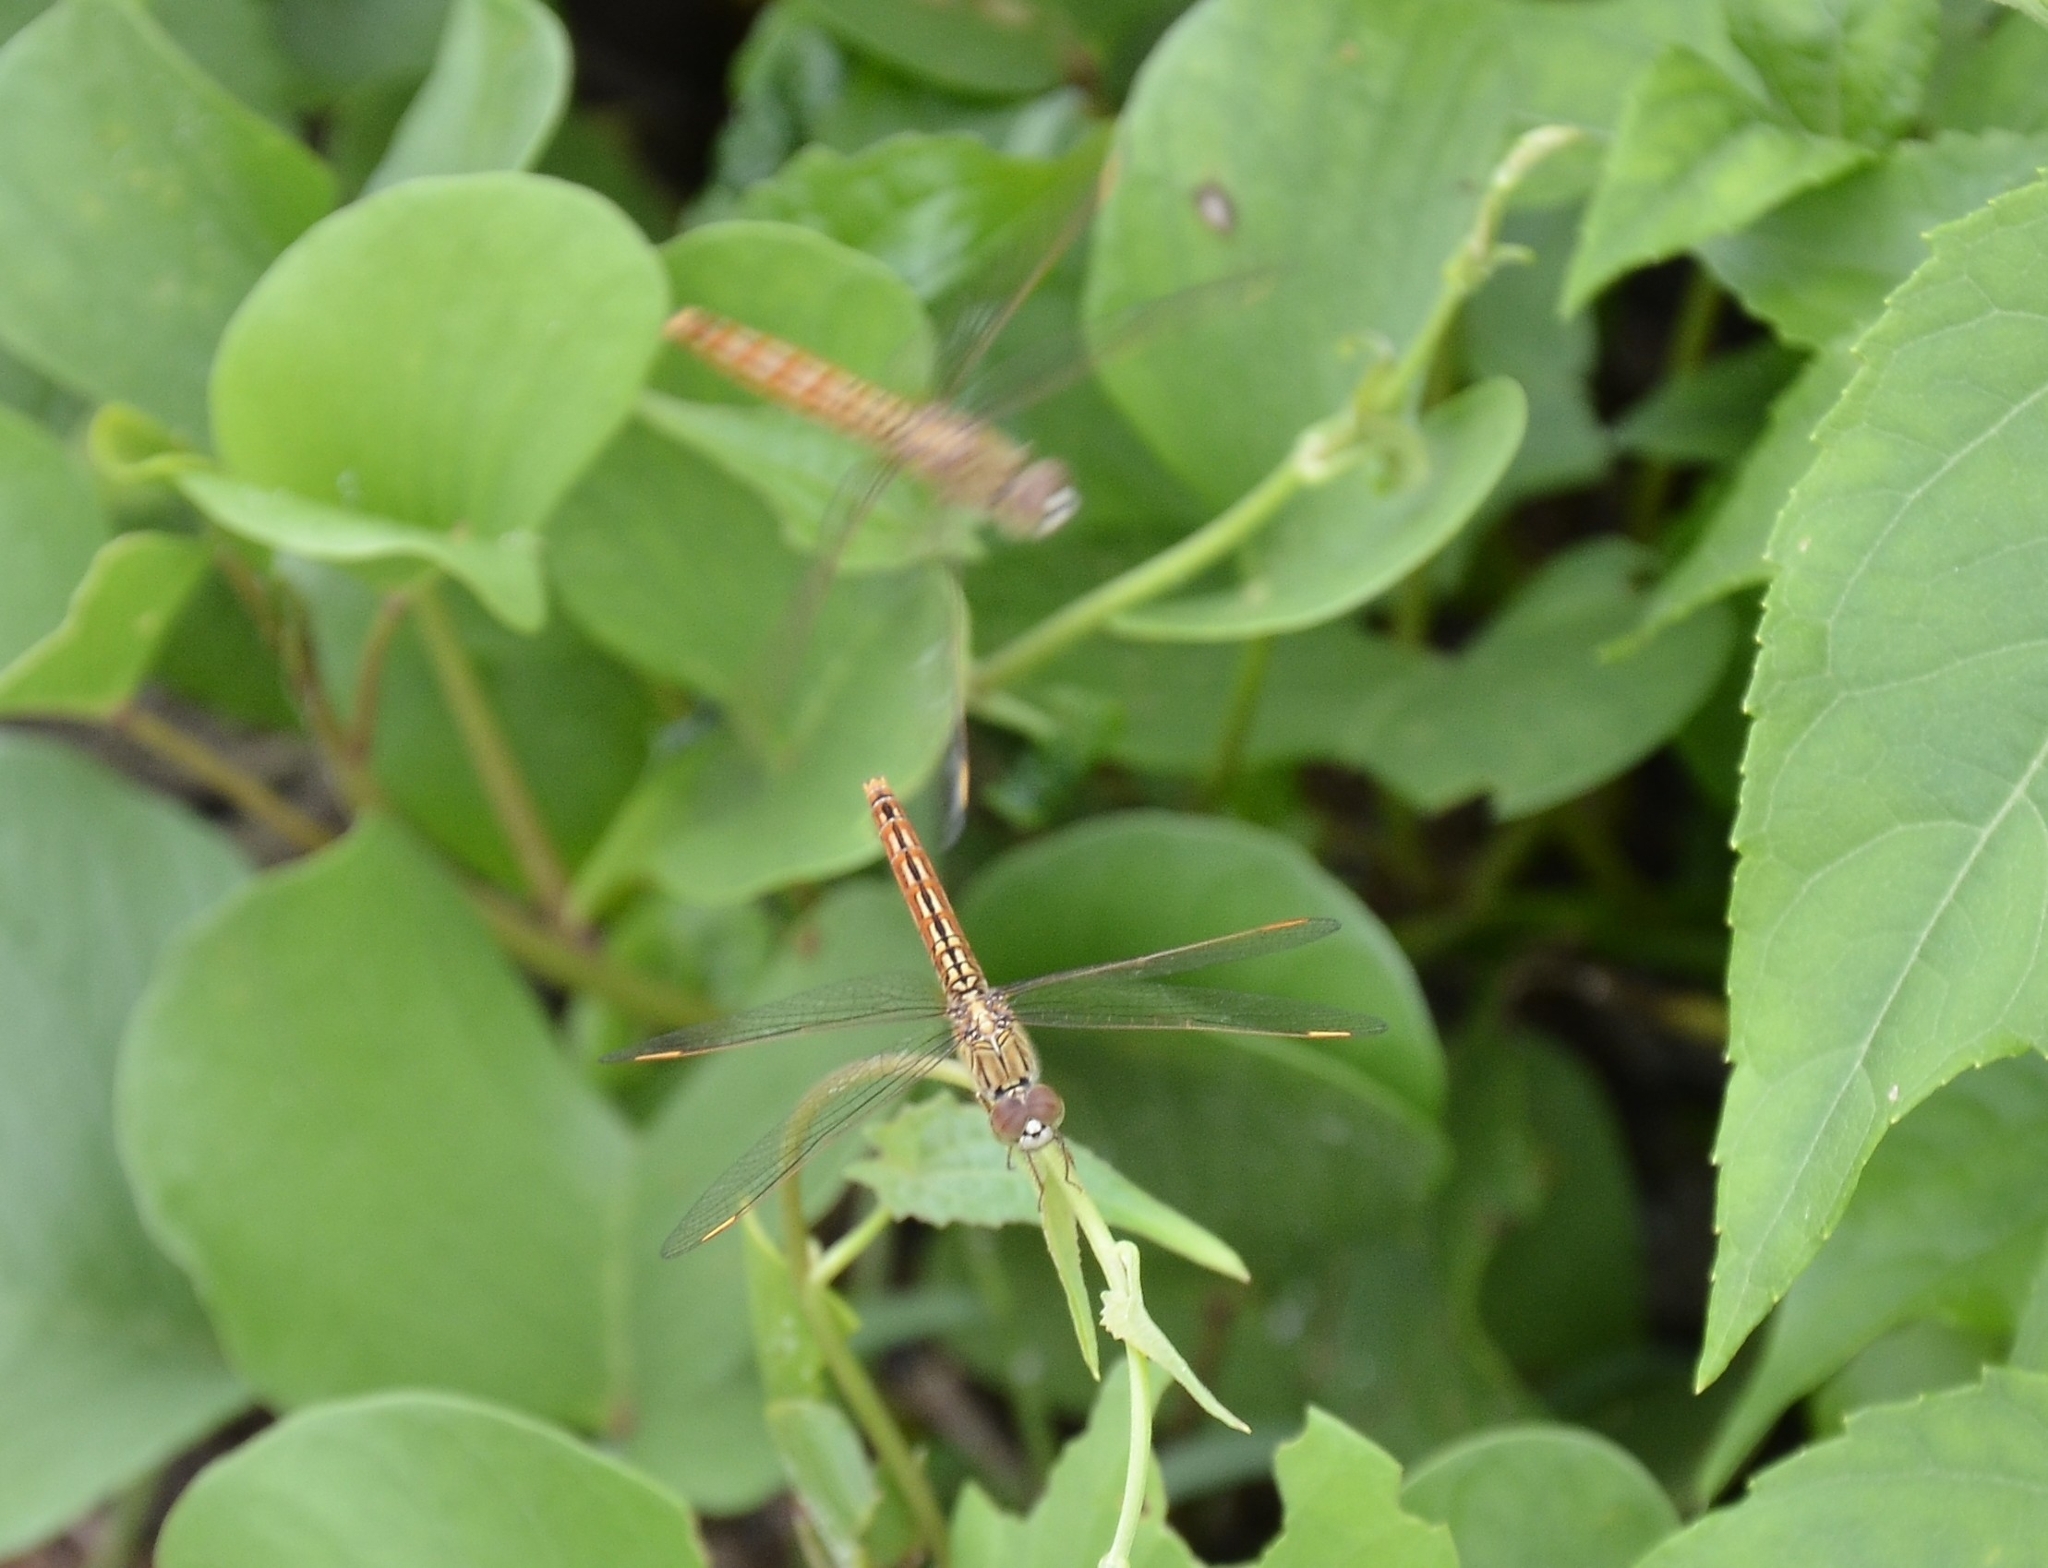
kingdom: Animalia
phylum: Arthropoda
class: Insecta
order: Odonata
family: Libellulidae
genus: Brachythemis
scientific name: Brachythemis contaminata
